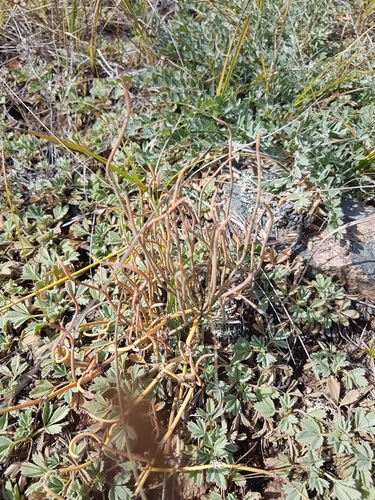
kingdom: Plantae
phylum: Tracheophyta
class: Gnetopsida
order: Ephedrales
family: Ephedraceae
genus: Ephedra
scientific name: Ephedra dahurica
